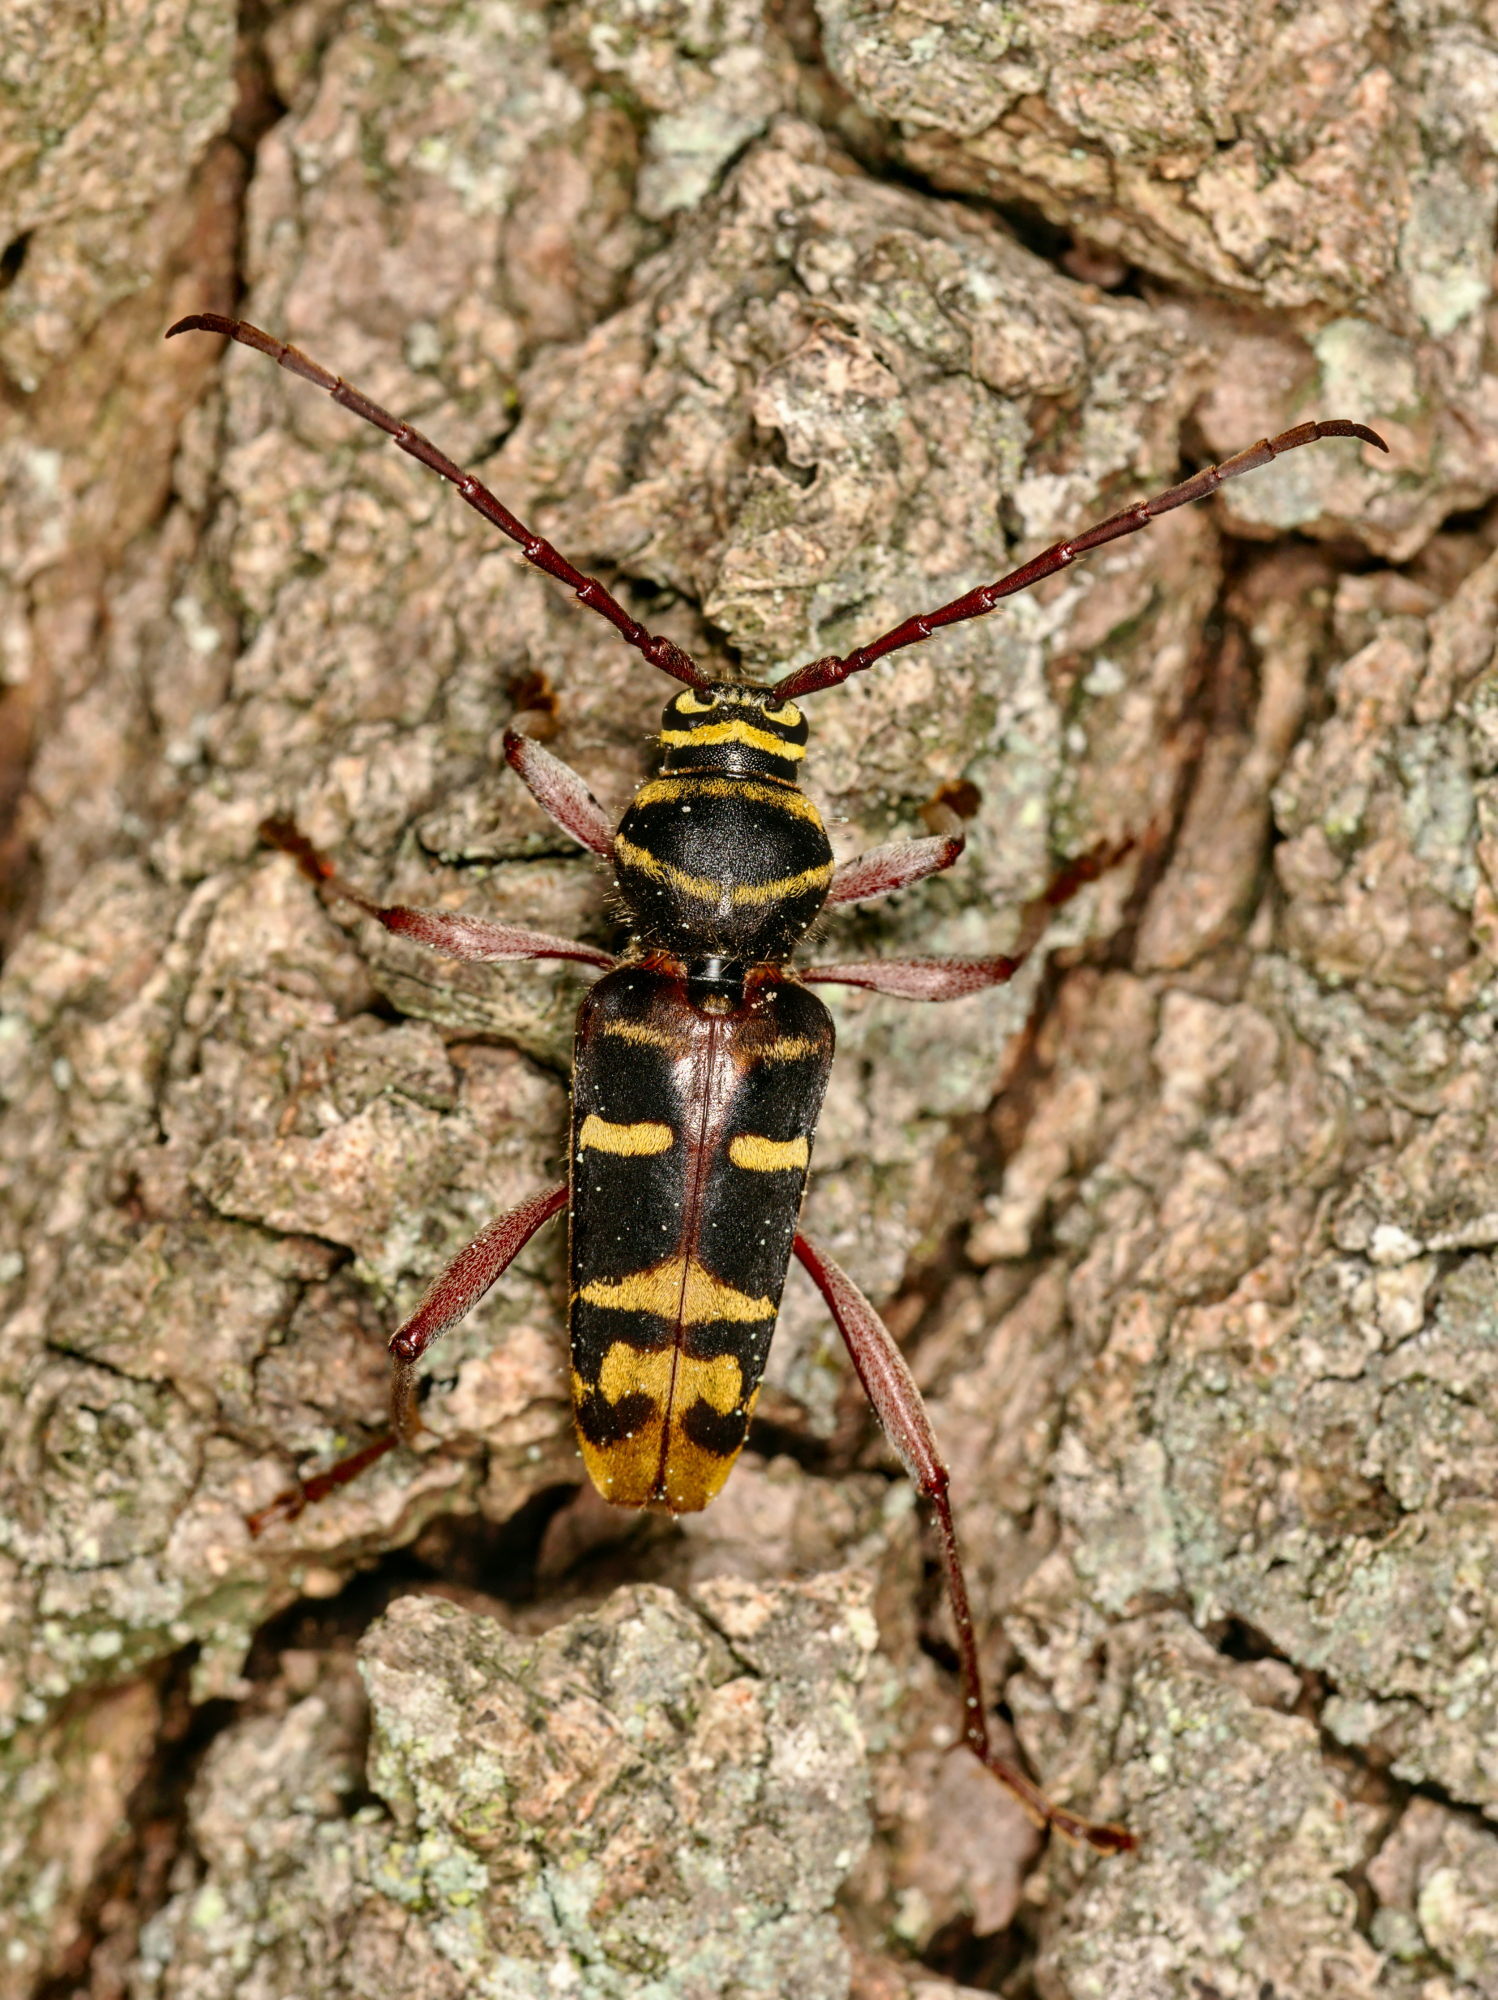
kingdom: Animalia
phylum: Arthropoda
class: Insecta
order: Coleoptera
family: Cerambycidae
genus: Plagionotus
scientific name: Plagionotus detritus
